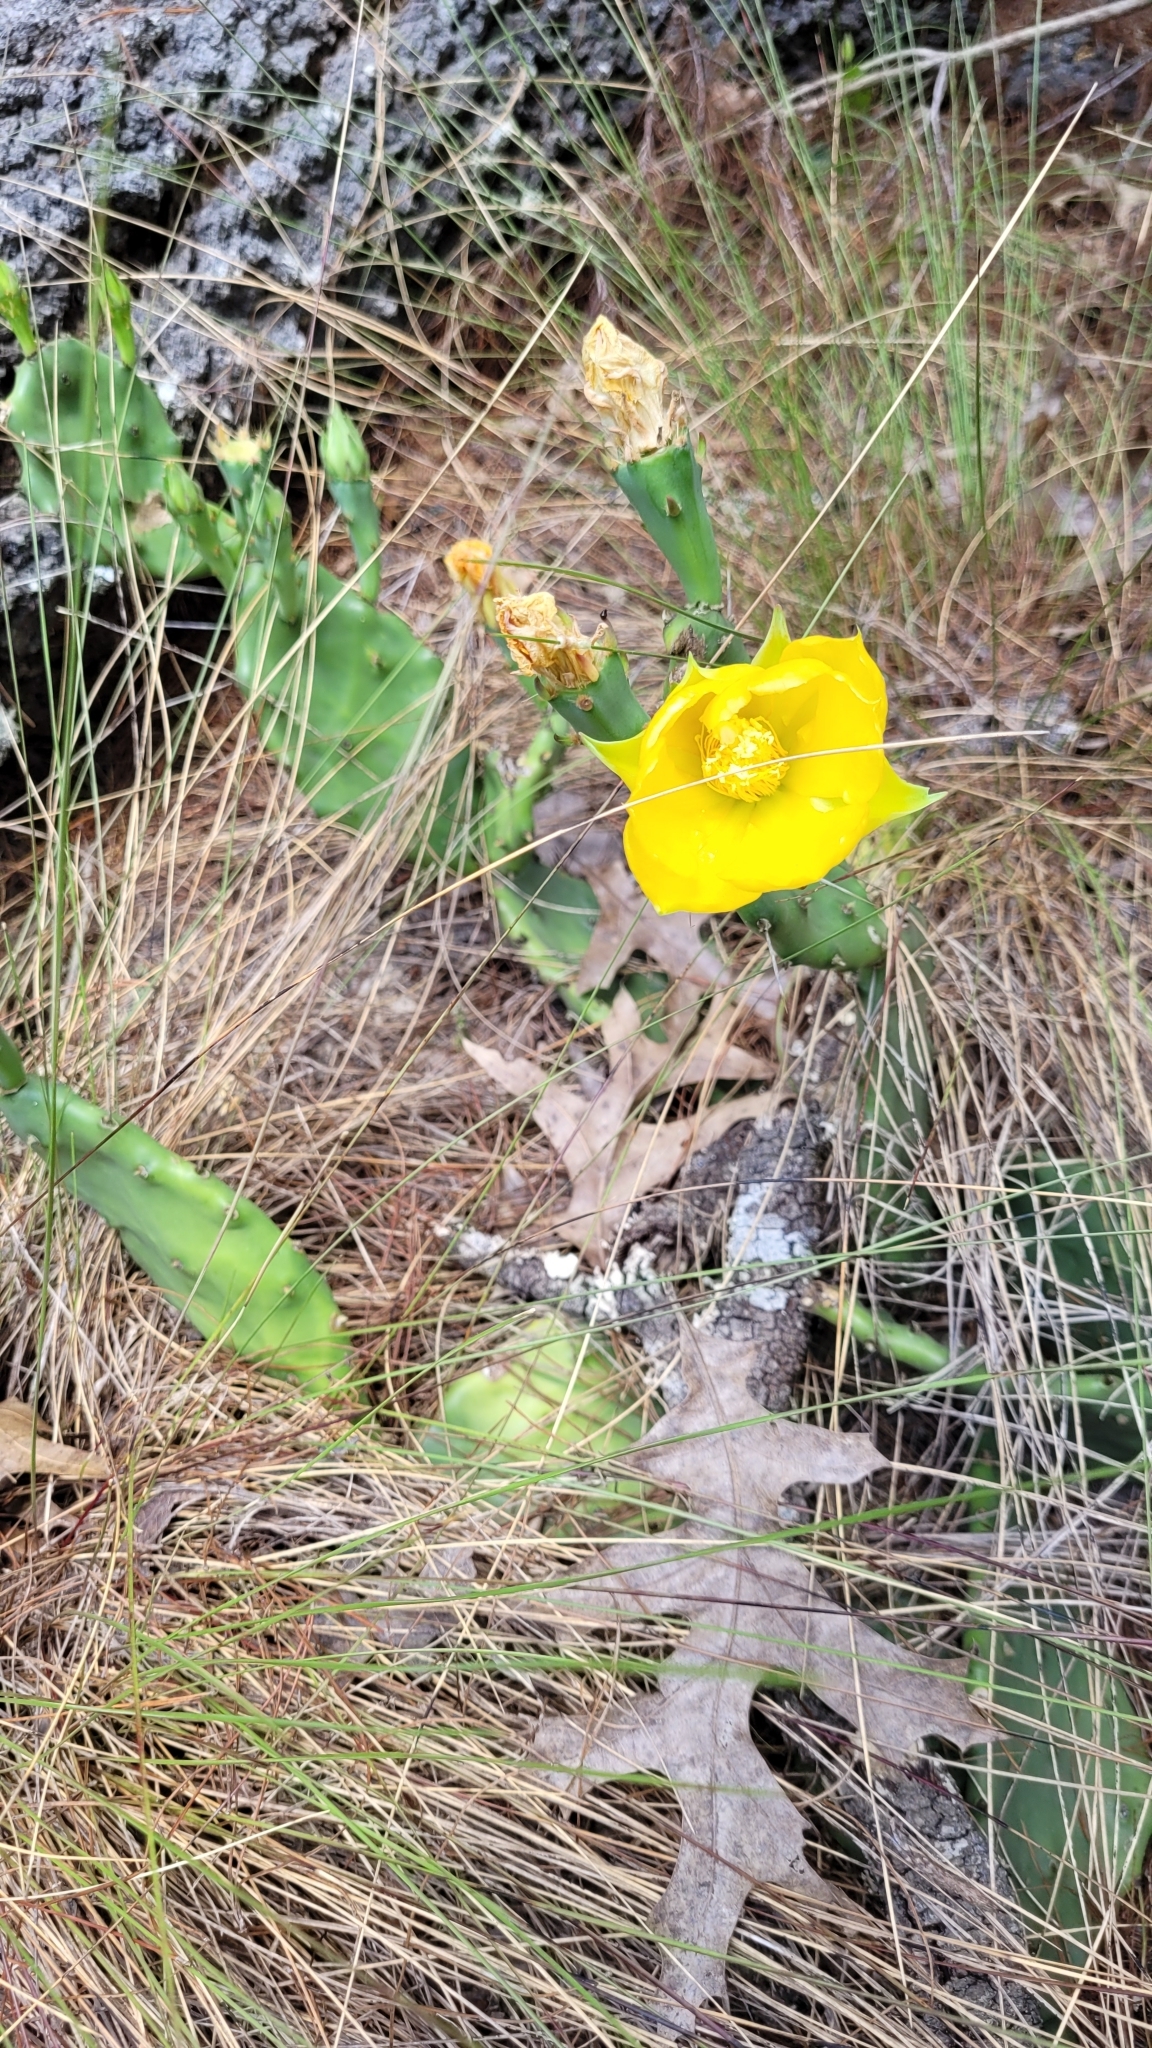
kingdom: Plantae
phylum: Tracheophyta
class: Magnoliopsida
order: Caryophyllales
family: Cactaceae
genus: Opuntia
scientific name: Opuntia austrina
